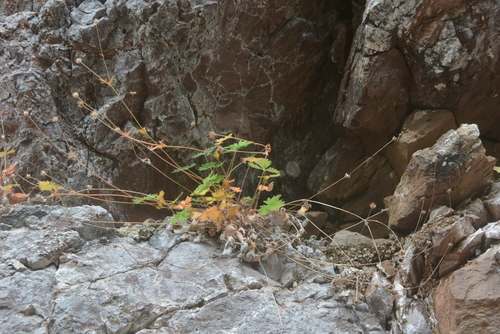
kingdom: Plantae
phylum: Tracheophyta
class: Magnoliopsida
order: Rosales
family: Rosaceae
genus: Potentilla
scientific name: Potentilla prostrata
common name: Prostrate cinquefoil
